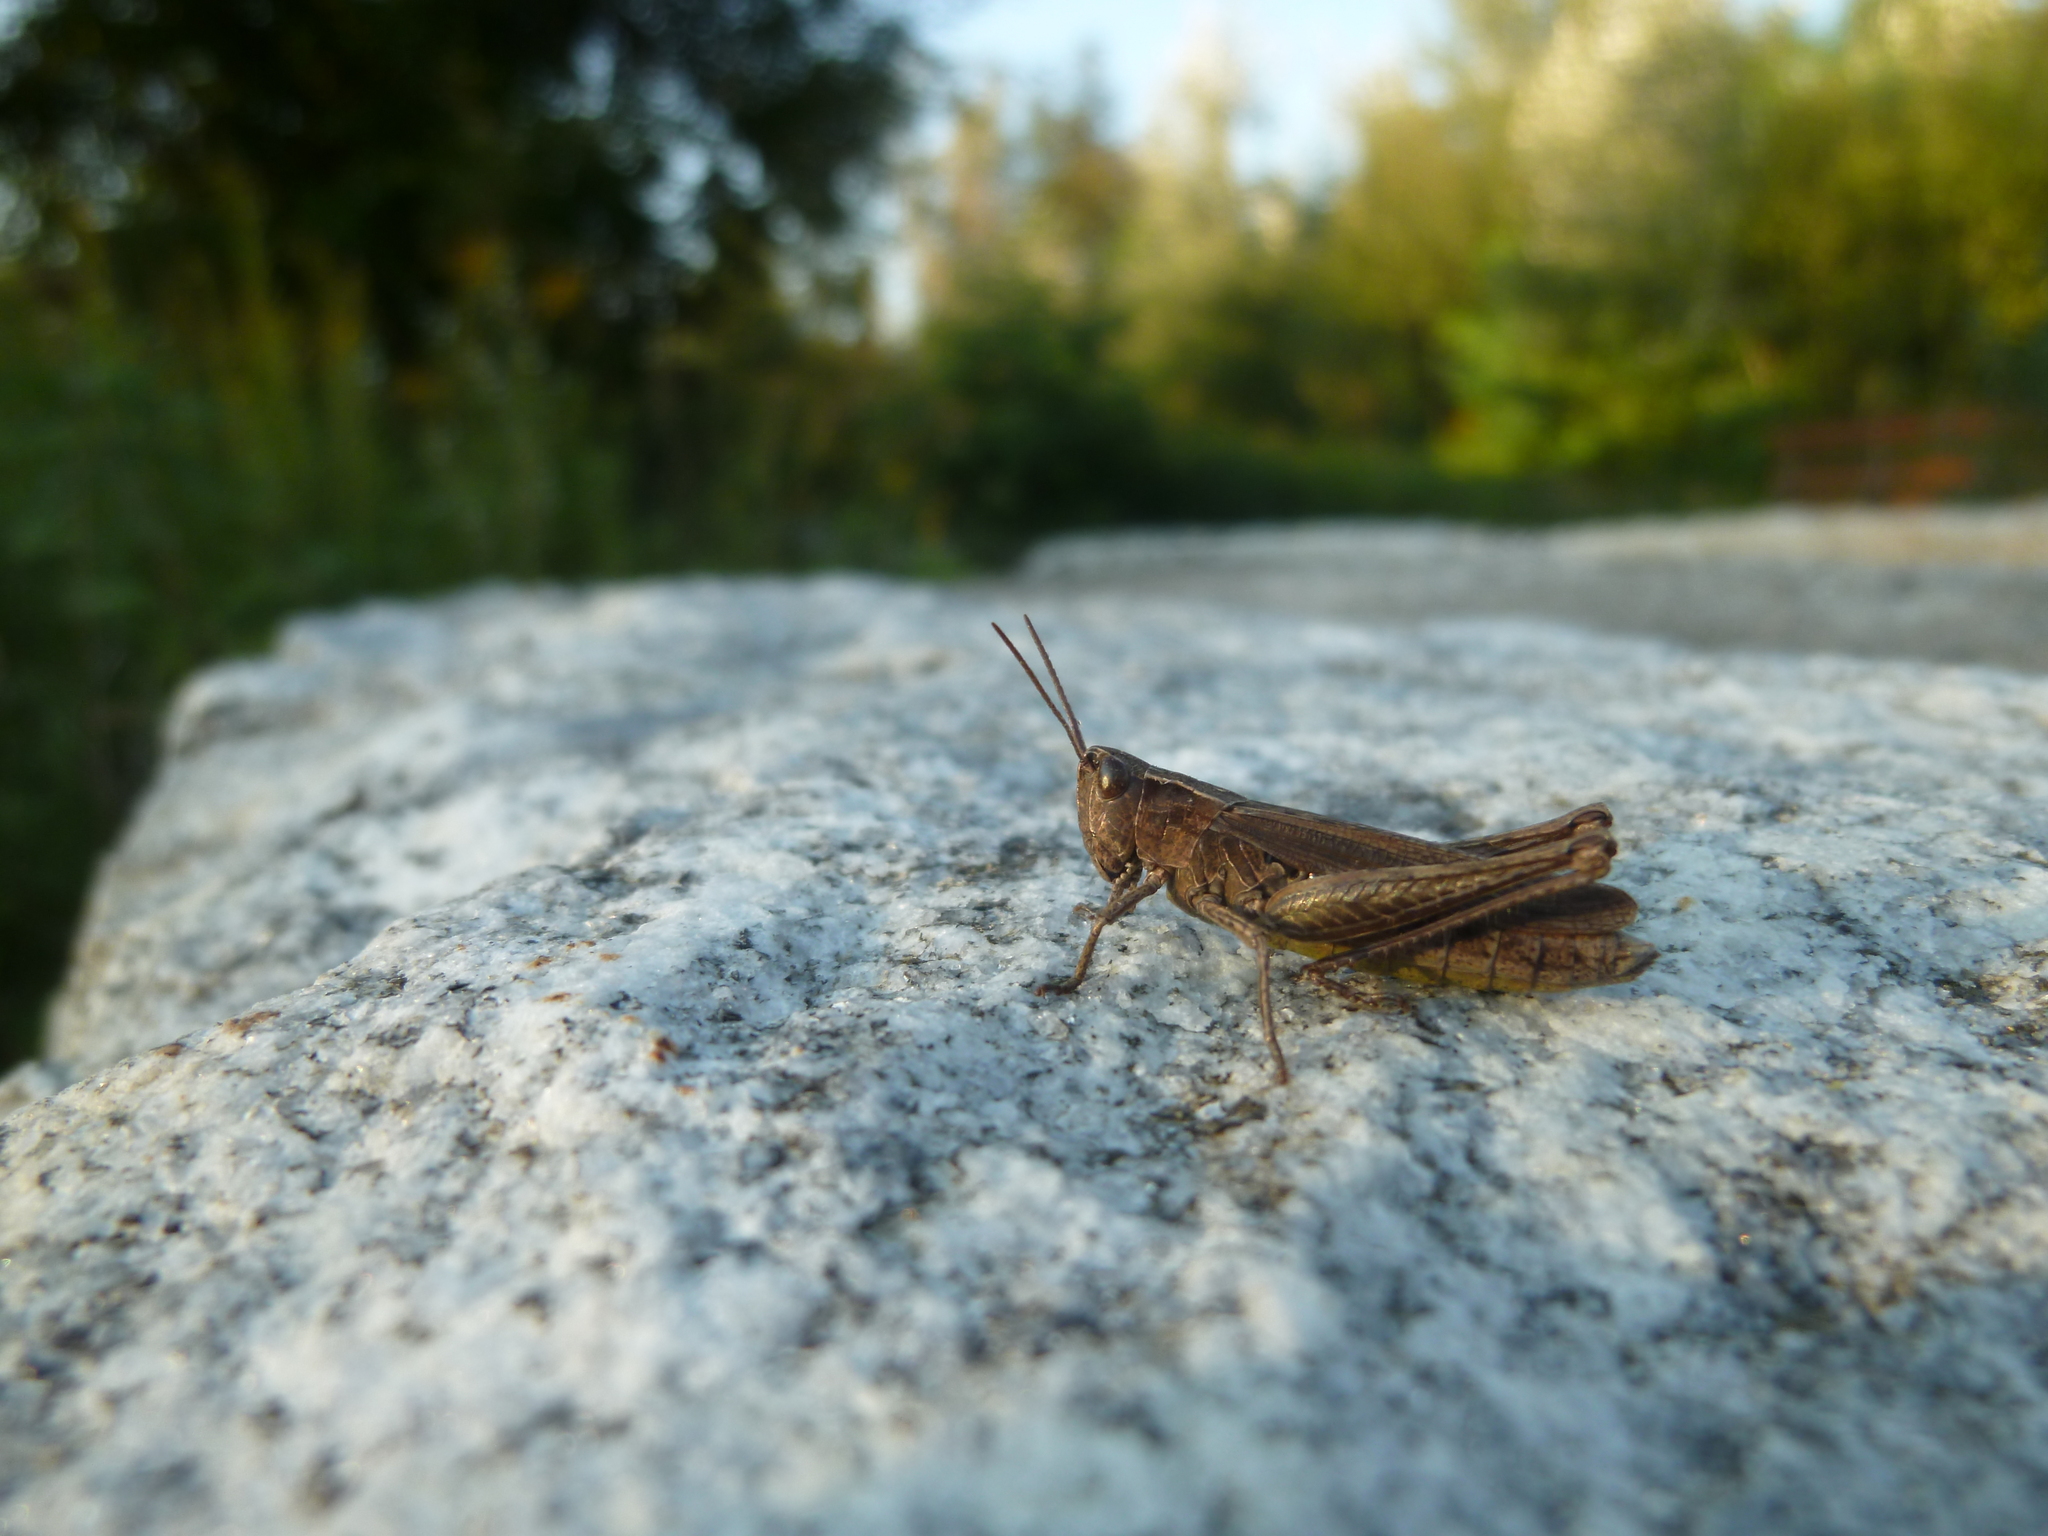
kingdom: Animalia
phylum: Arthropoda
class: Insecta
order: Orthoptera
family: Acrididae
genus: Chorthippus
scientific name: Chorthippus dorsatus
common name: Steppe grasshopper
